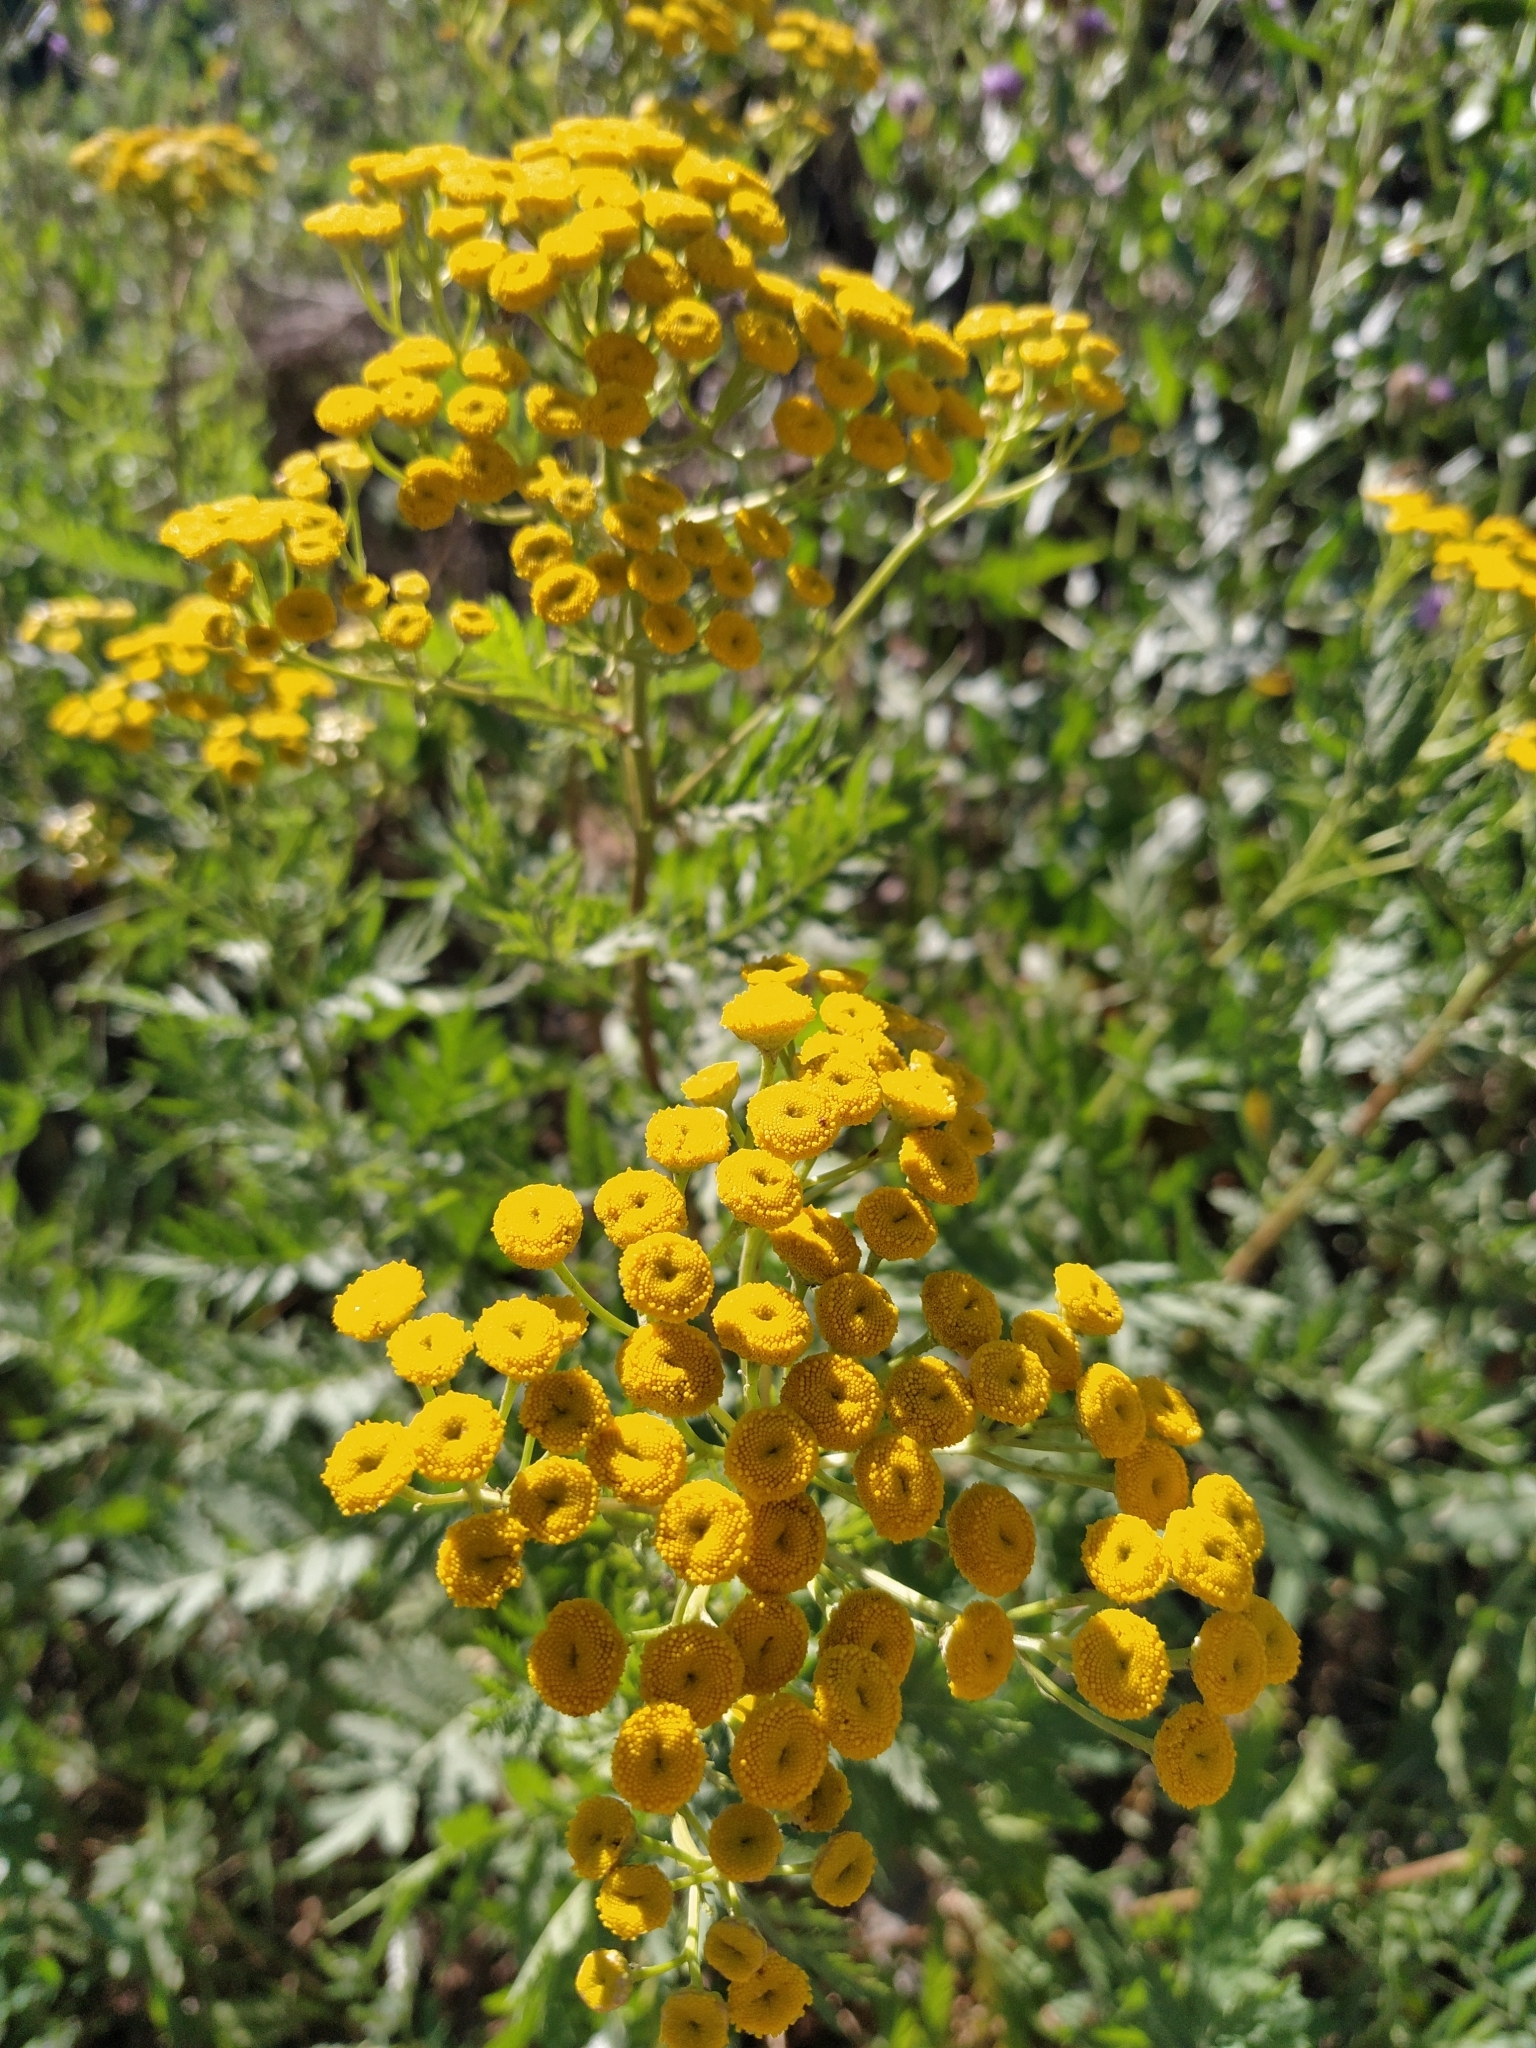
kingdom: Plantae
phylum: Tracheophyta
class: Magnoliopsida
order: Asterales
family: Asteraceae
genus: Tanacetum
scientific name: Tanacetum vulgare
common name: Common tansy
